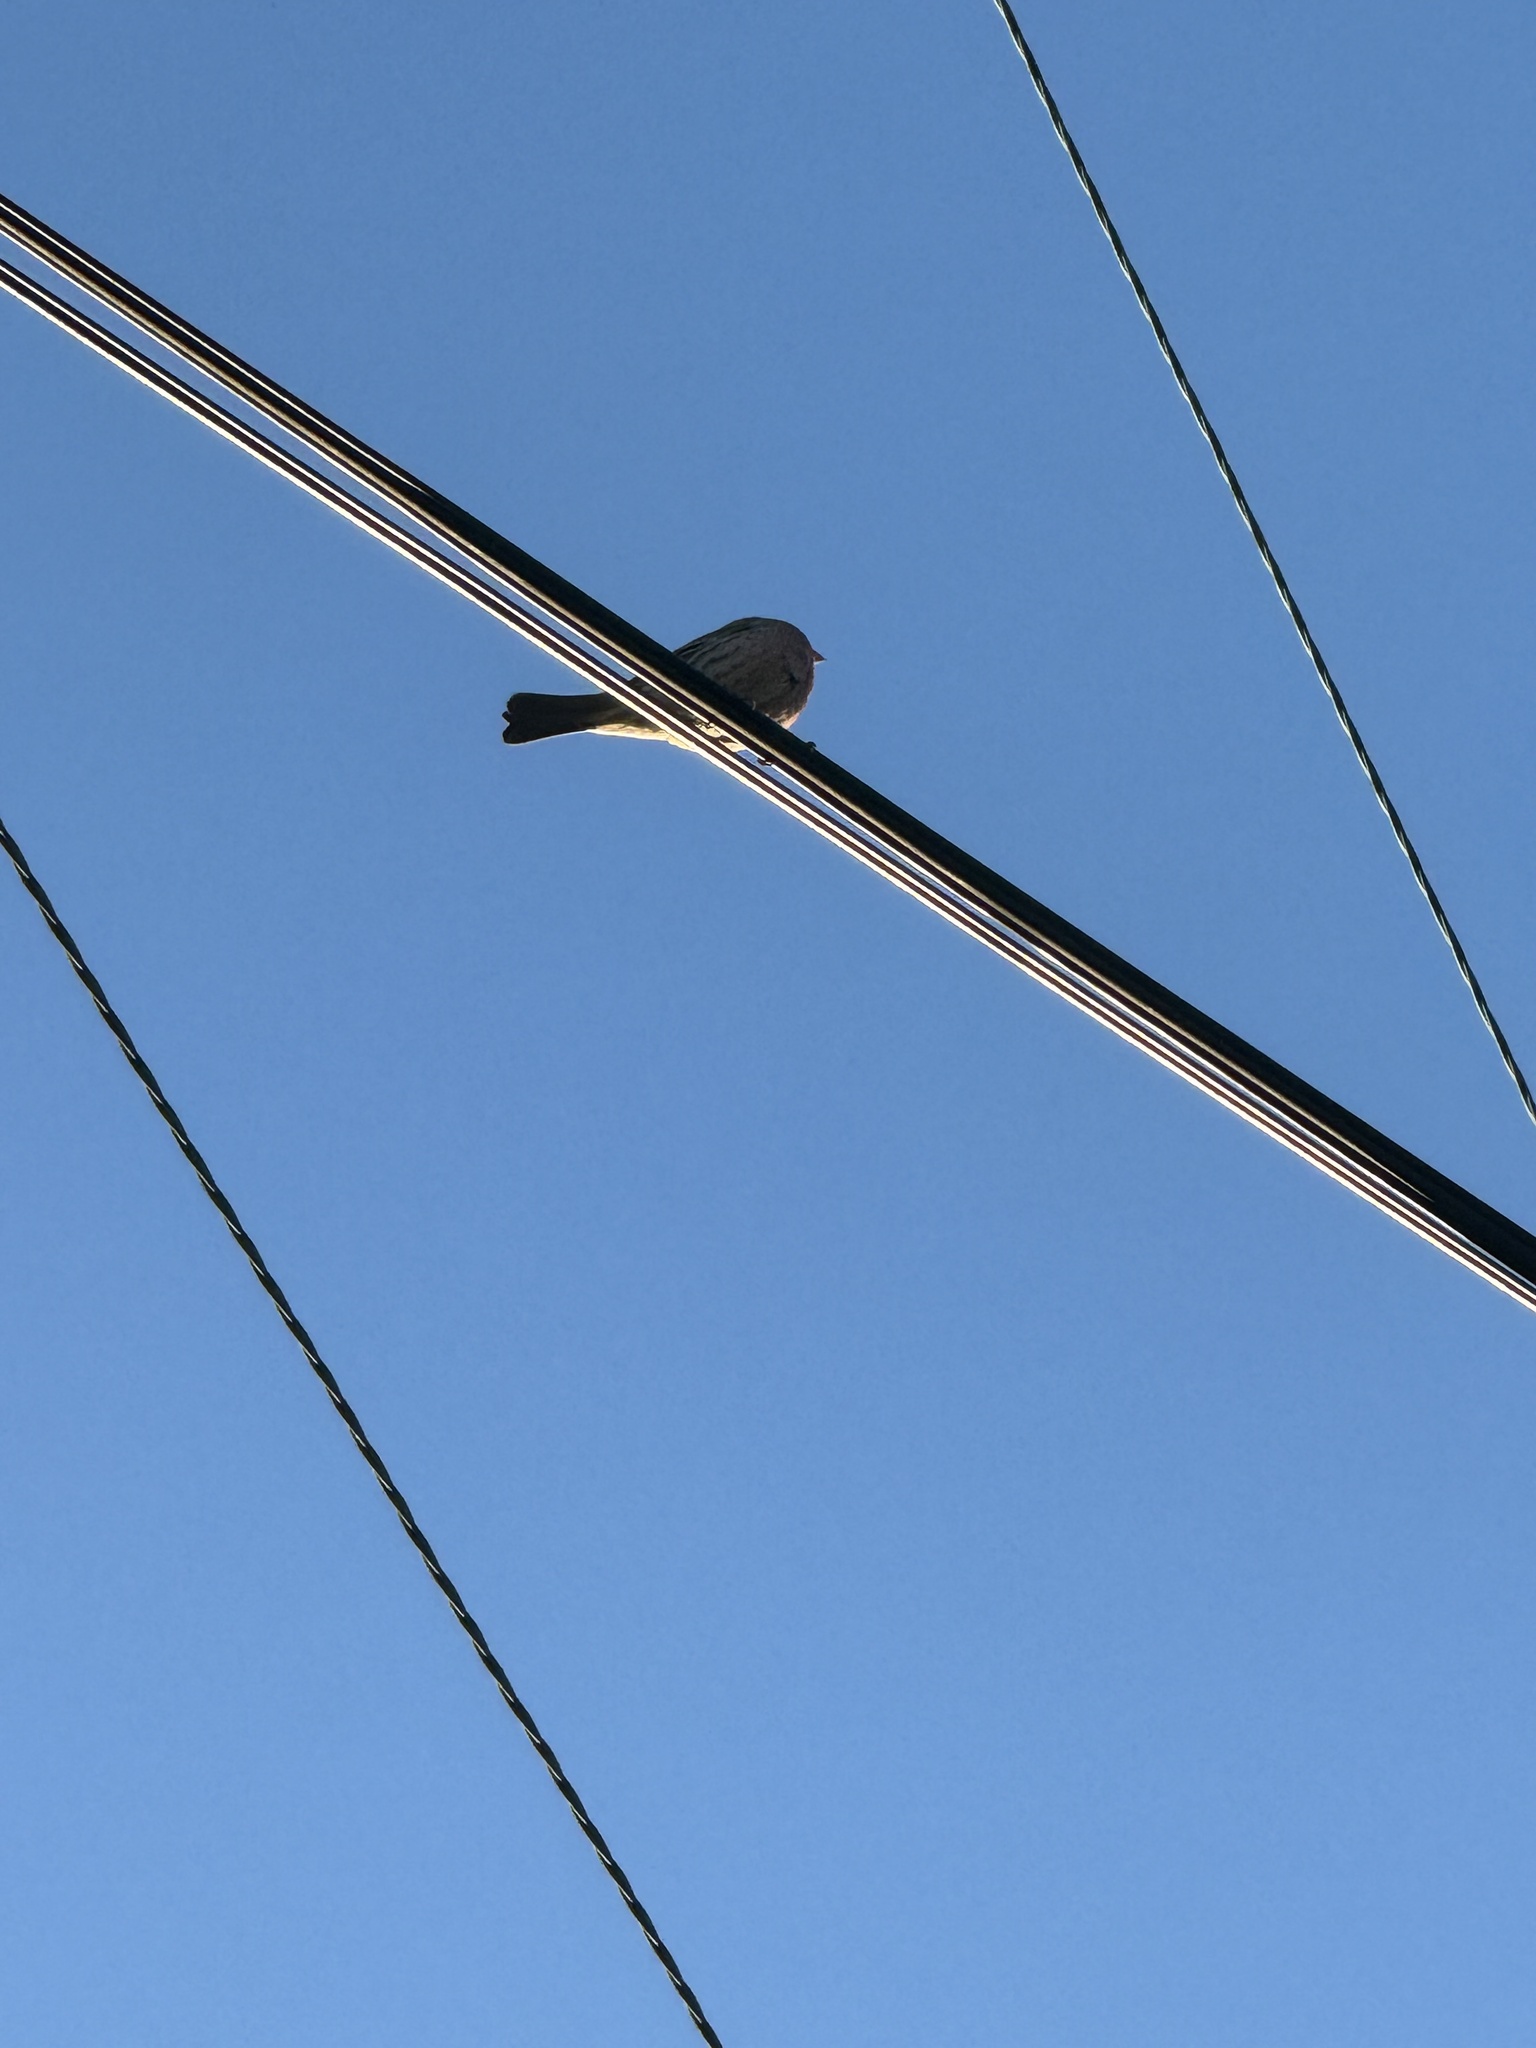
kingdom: Animalia
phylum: Chordata
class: Aves
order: Passeriformes
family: Fringillidae
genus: Haemorhous
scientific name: Haemorhous mexicanus
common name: House finch
